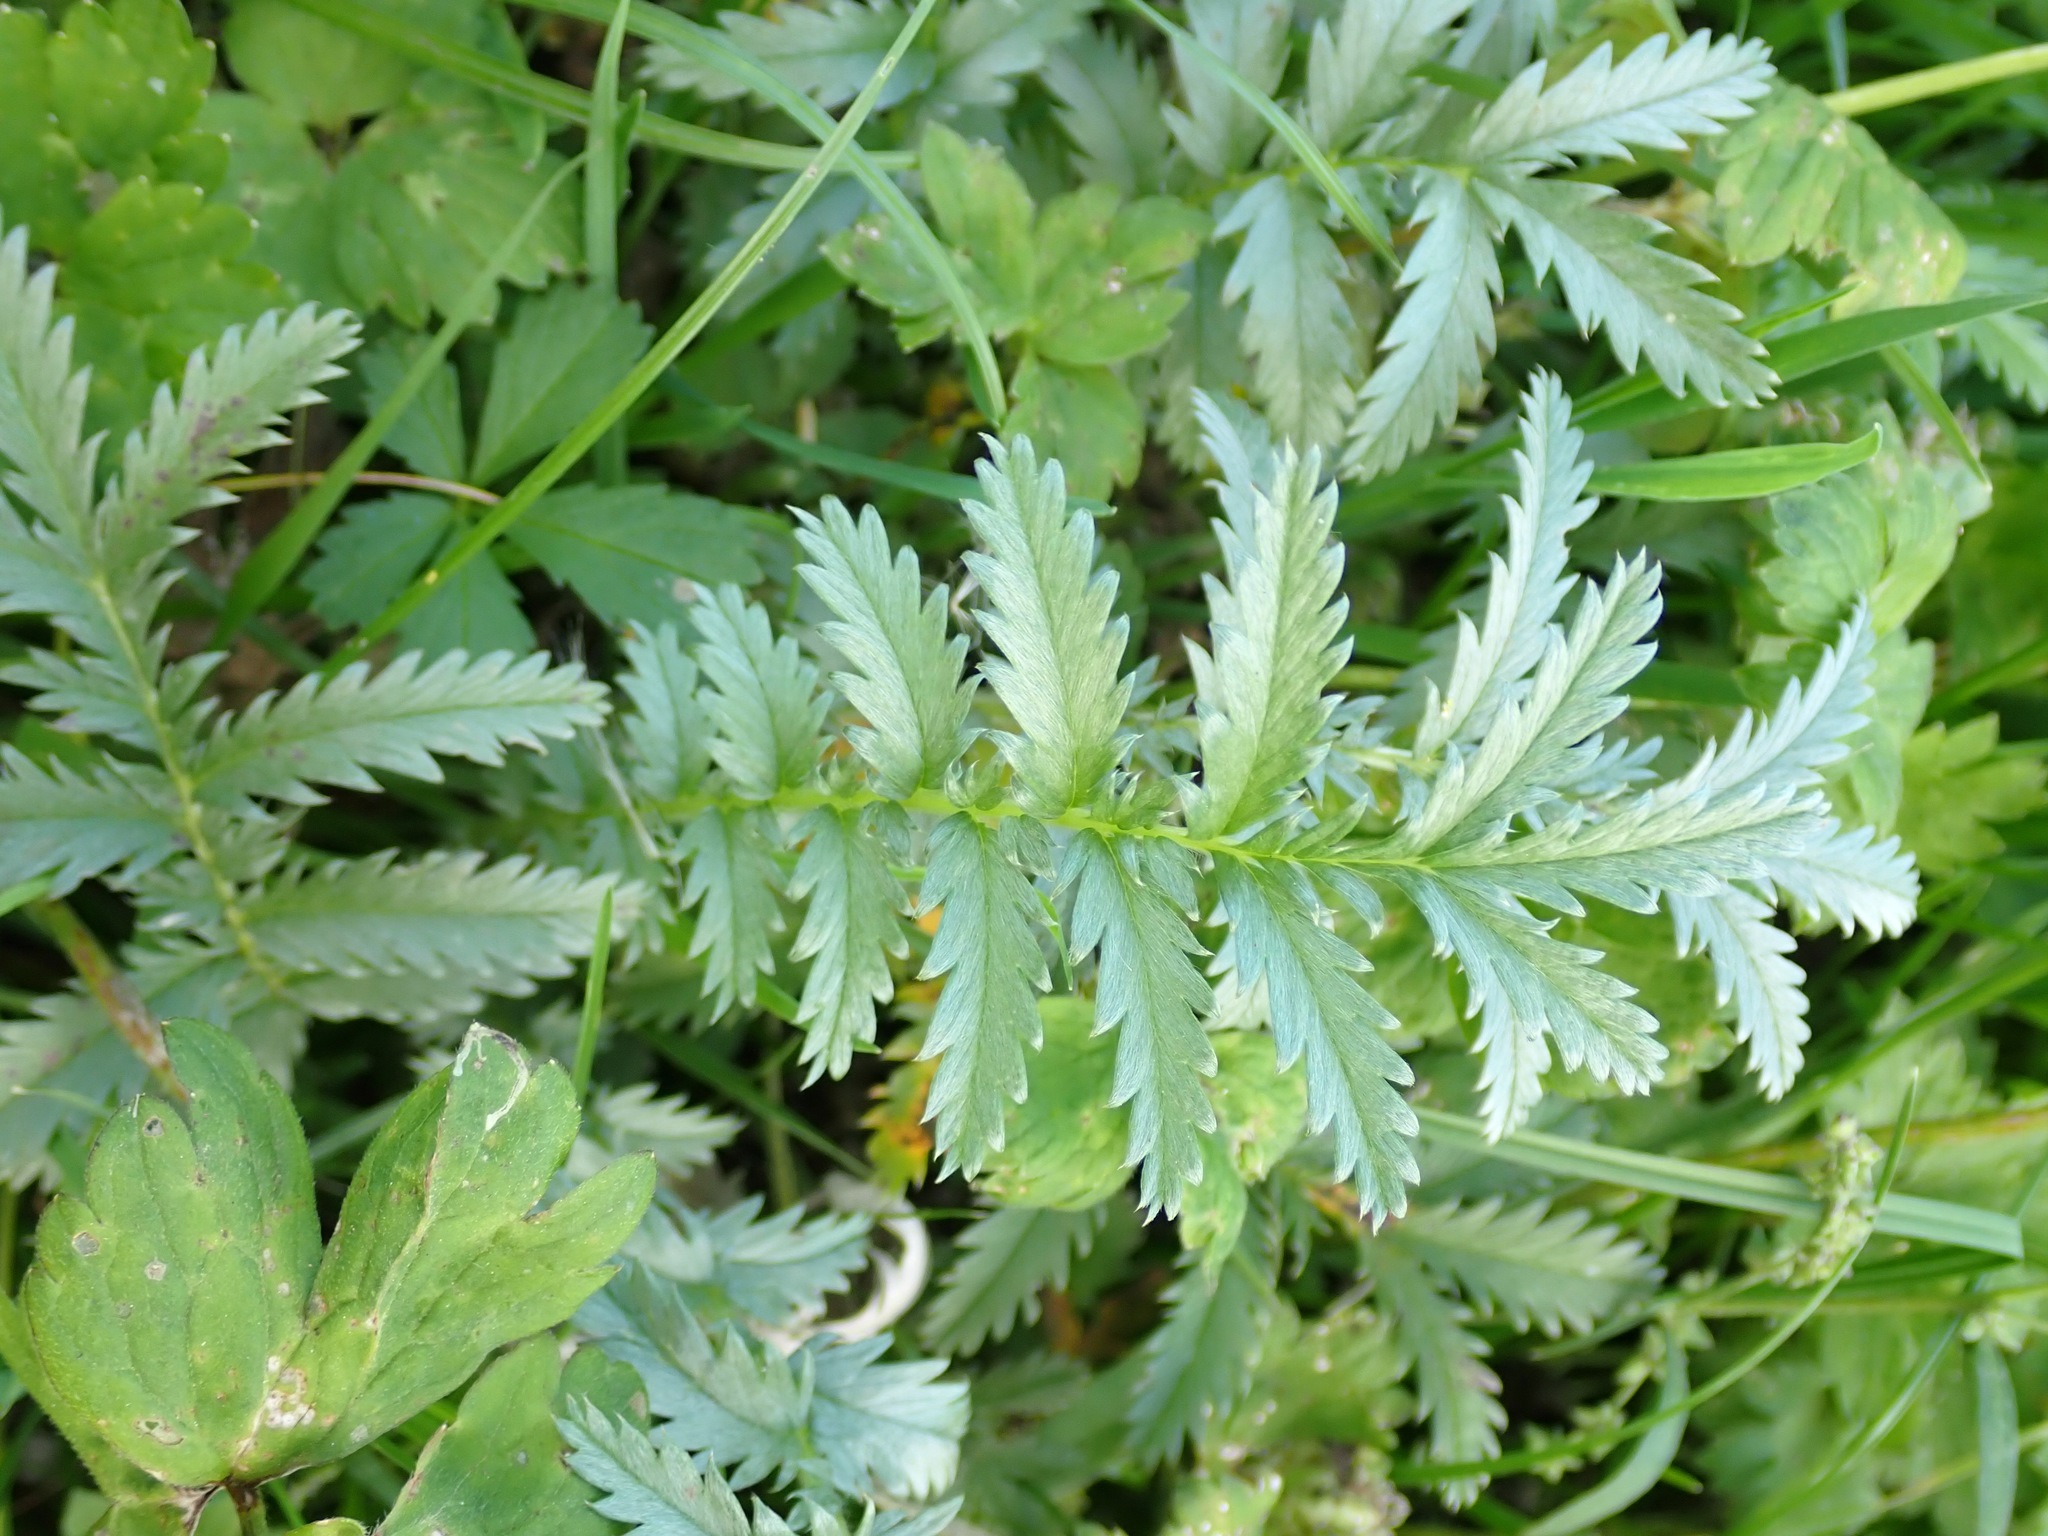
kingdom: Plantae
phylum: Tracheophyta
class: Magnoliopsida
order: Rosales
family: Rosaceae
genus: Argentina
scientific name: Argentina anserina
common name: Common silverweed
